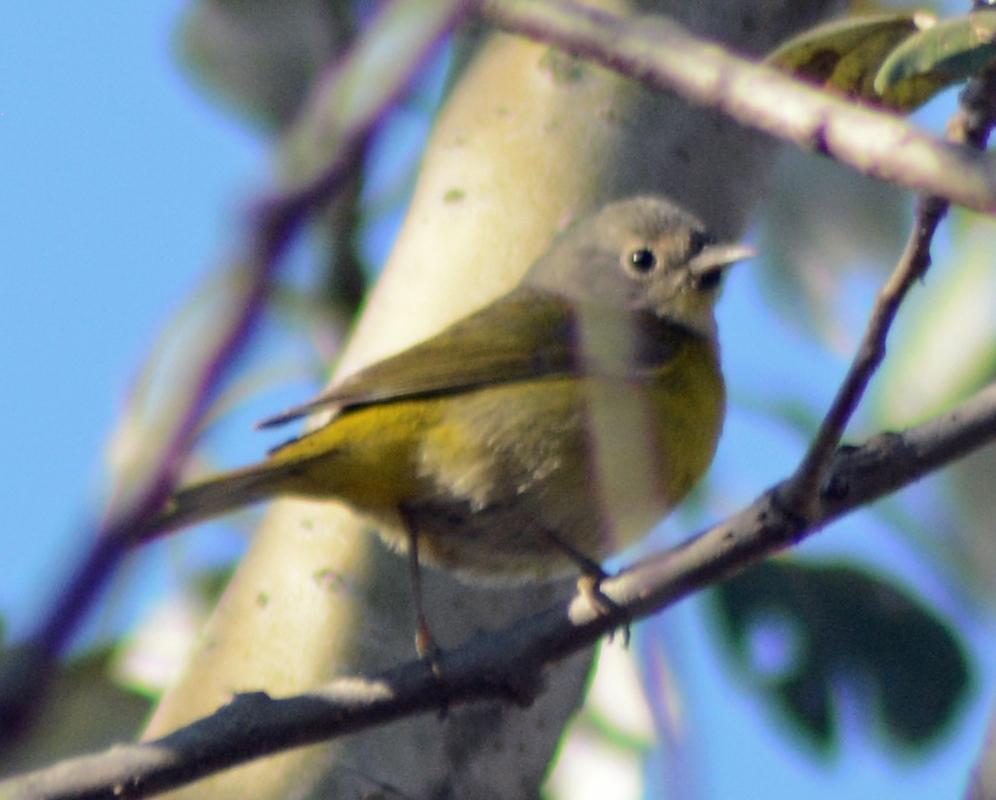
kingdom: Animalia
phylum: Chordata
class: Aves
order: Passeriformes
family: Parulidae
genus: Leiothlypis
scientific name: Leiothlypis ruficapilla
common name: Nashville warbler
